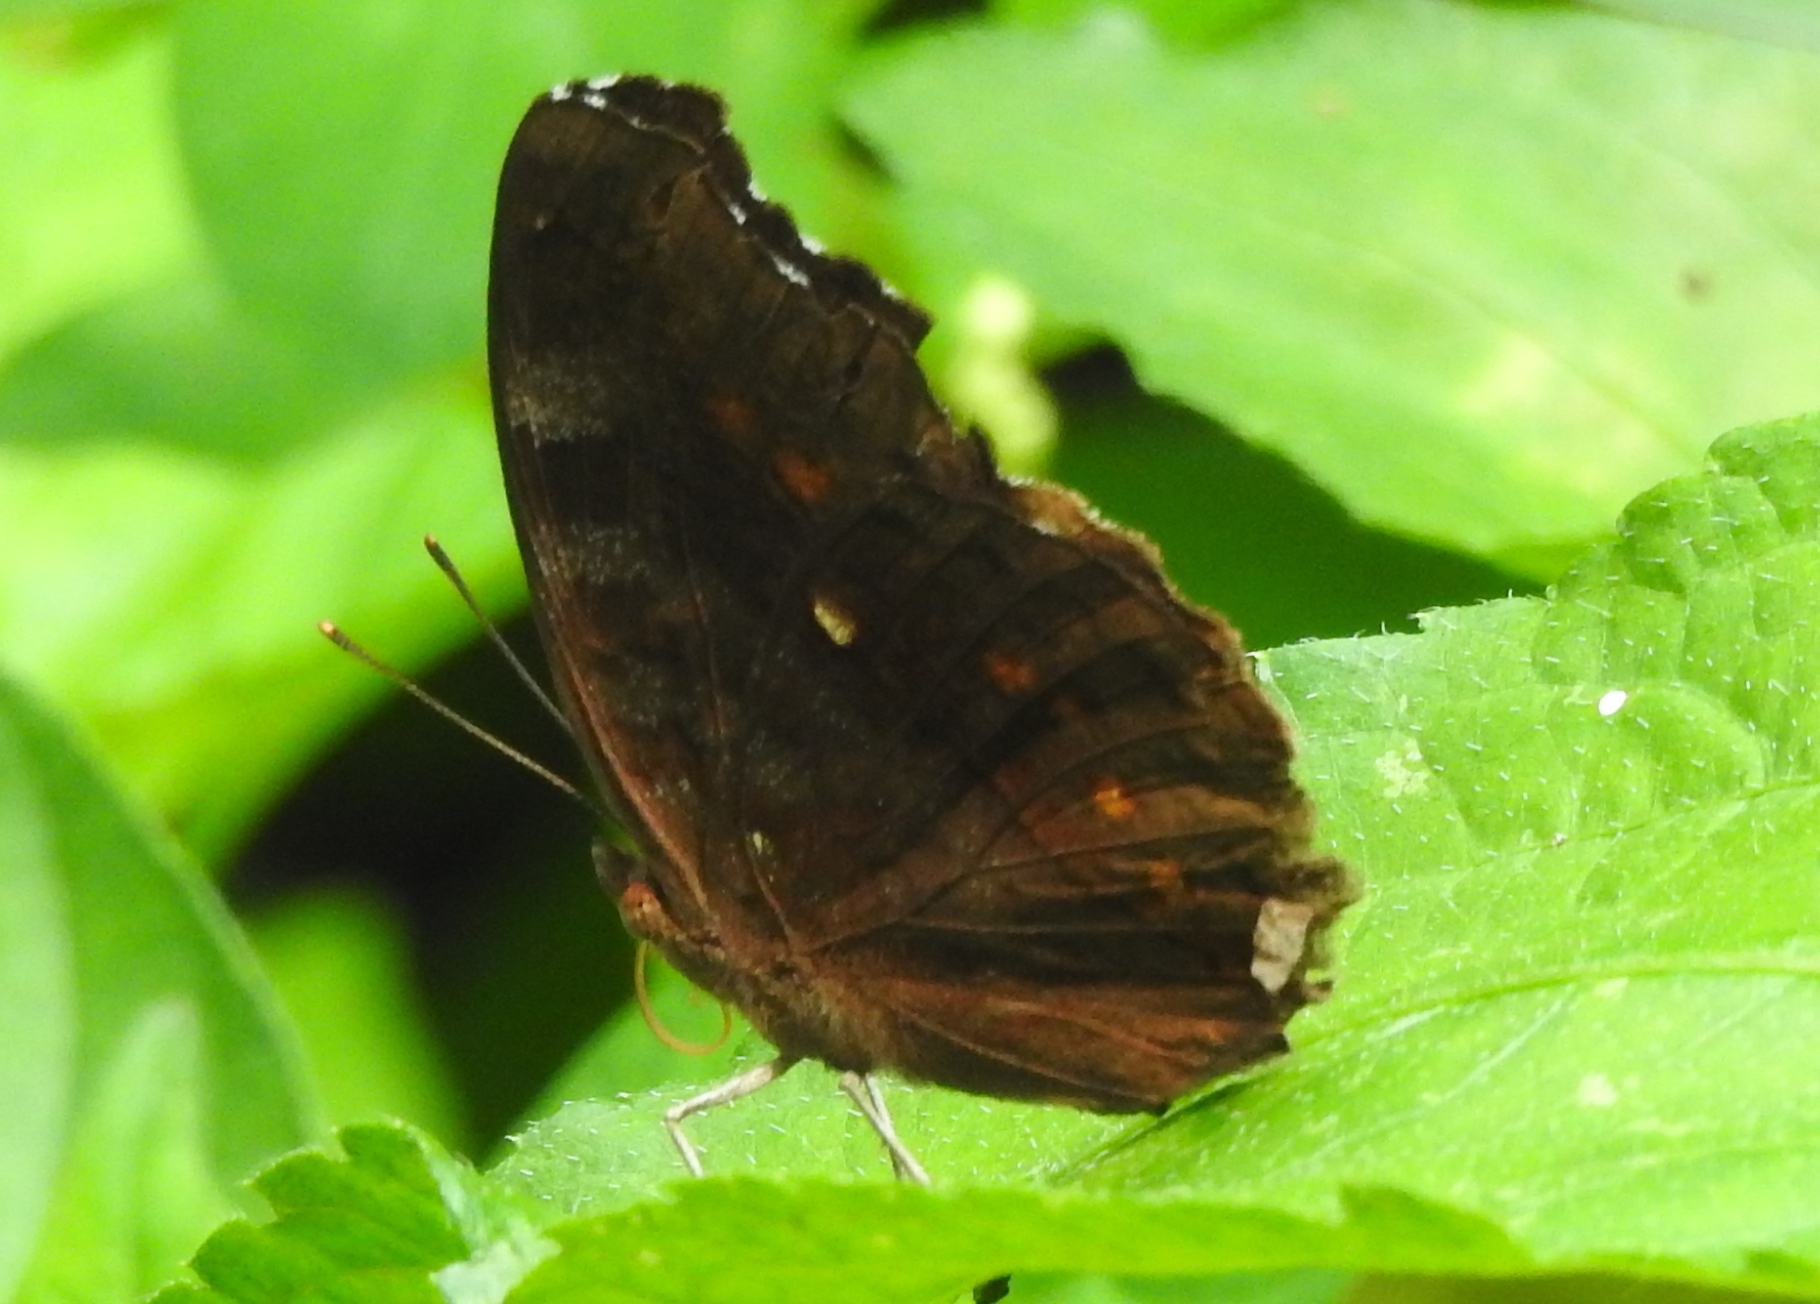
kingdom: Animalia
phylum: Arthropoda
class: Insecta
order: Lepidoptera
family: Nymphalidae
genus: Junonia
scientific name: Junonia hedonia
